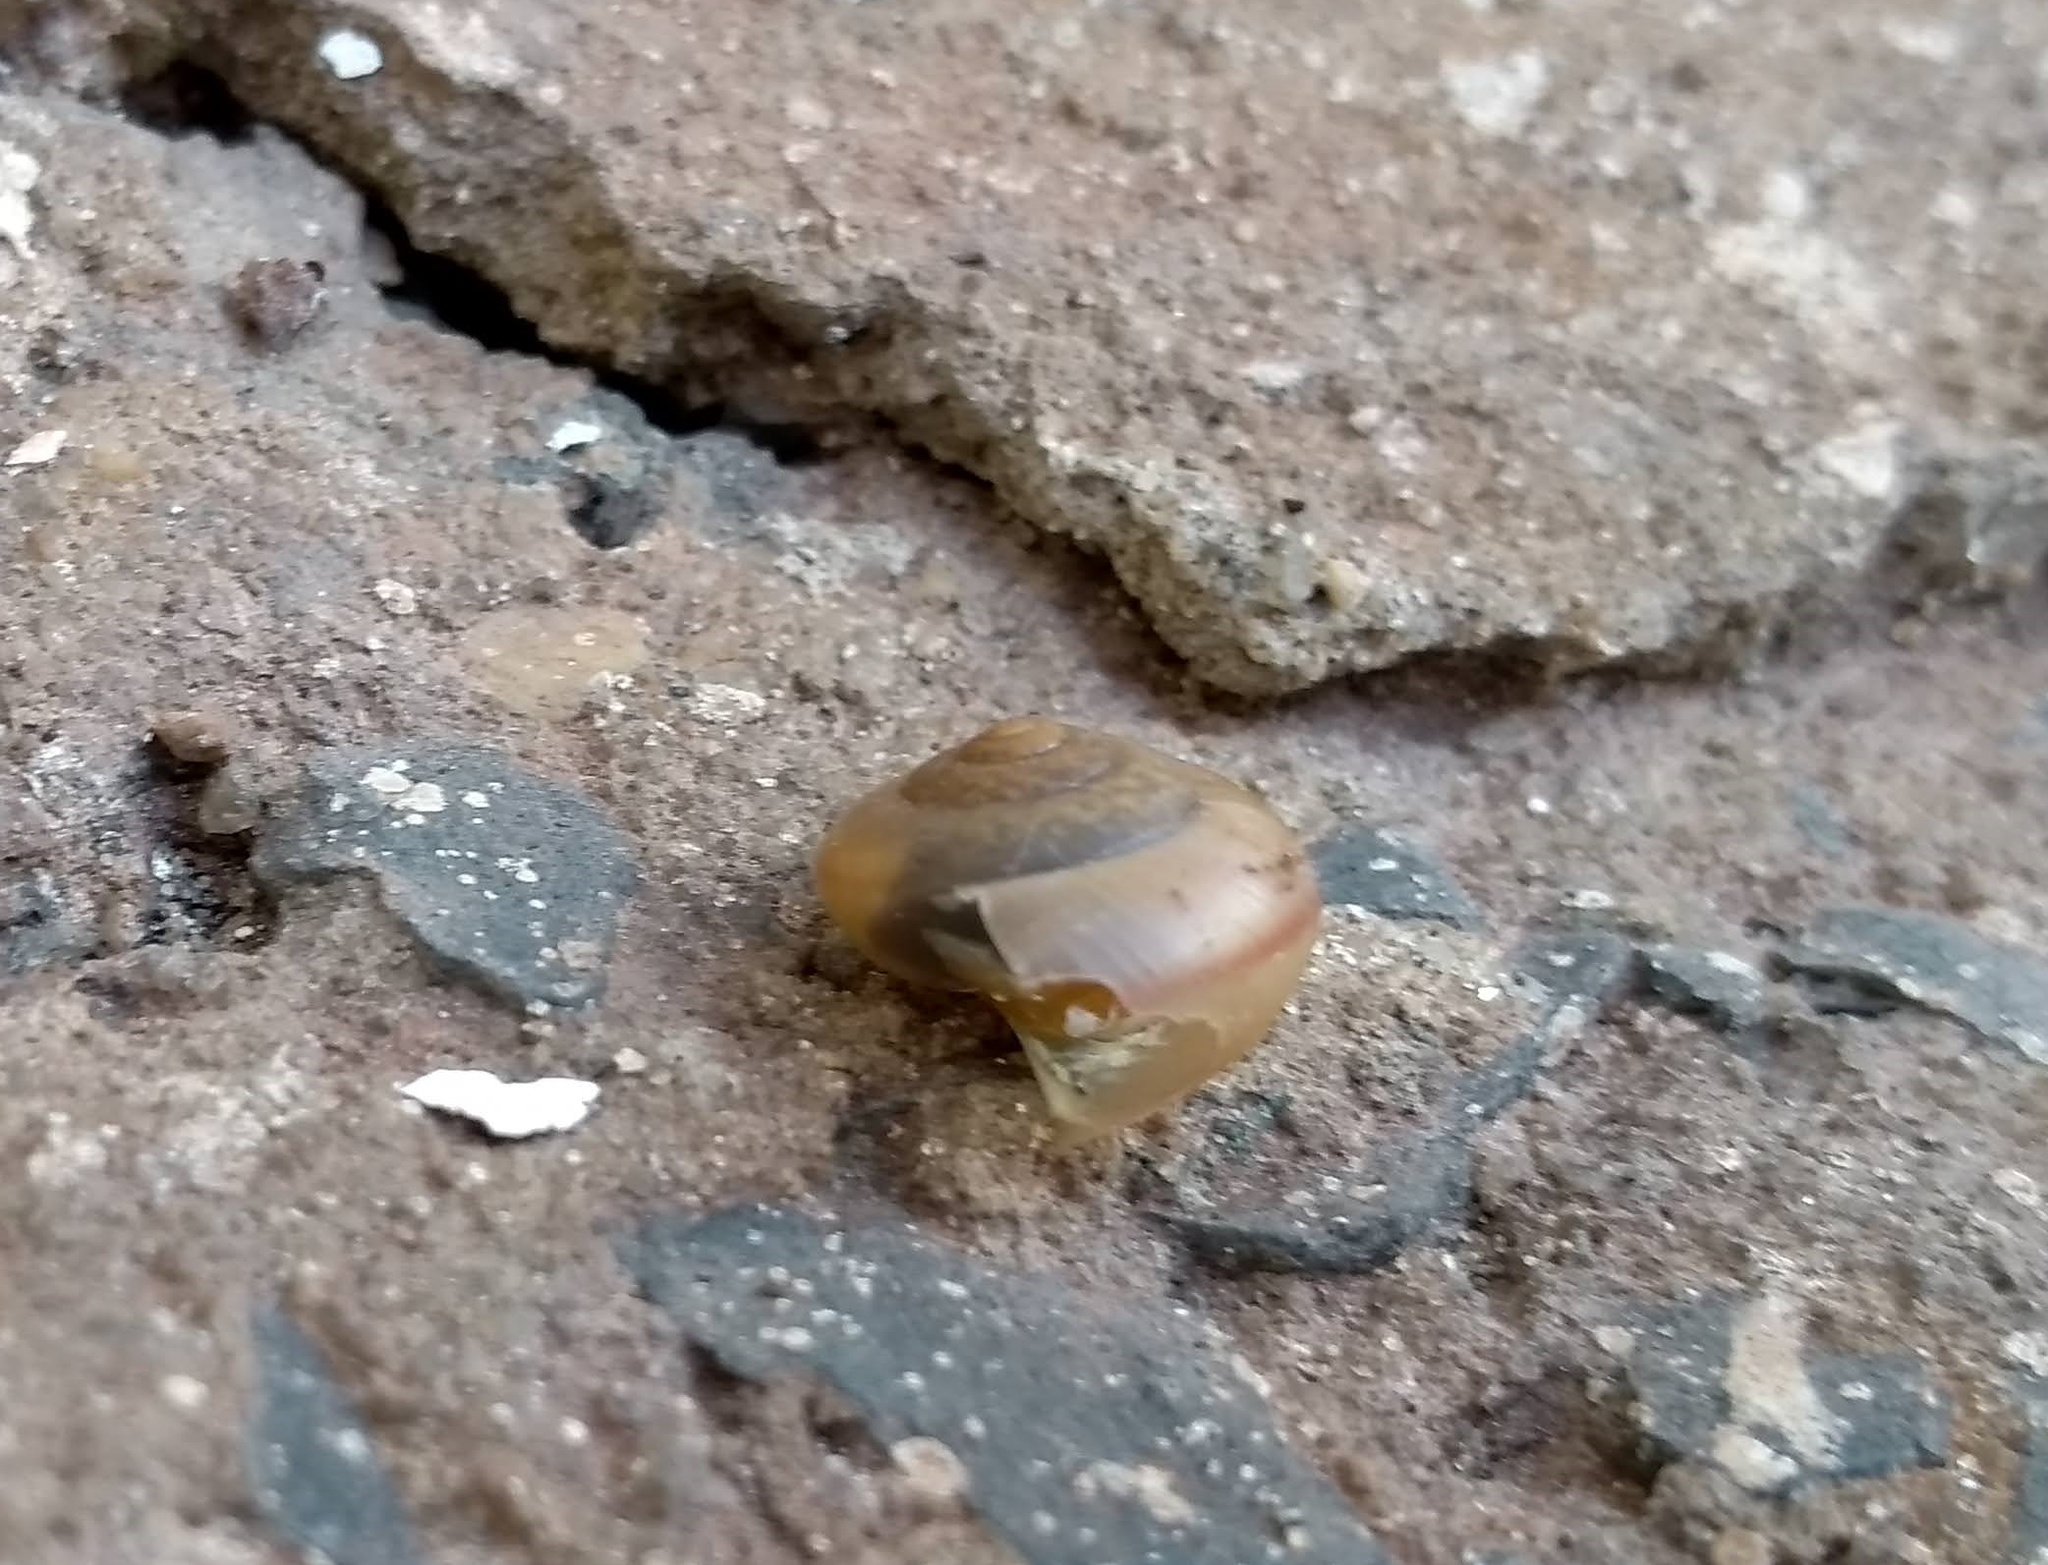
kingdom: Animalia
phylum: Mollusca
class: Gastropoda
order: Stylommatophora
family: Camaenidae
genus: Bradybaena
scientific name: Bradybaena similaris
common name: Asian trampsnail
